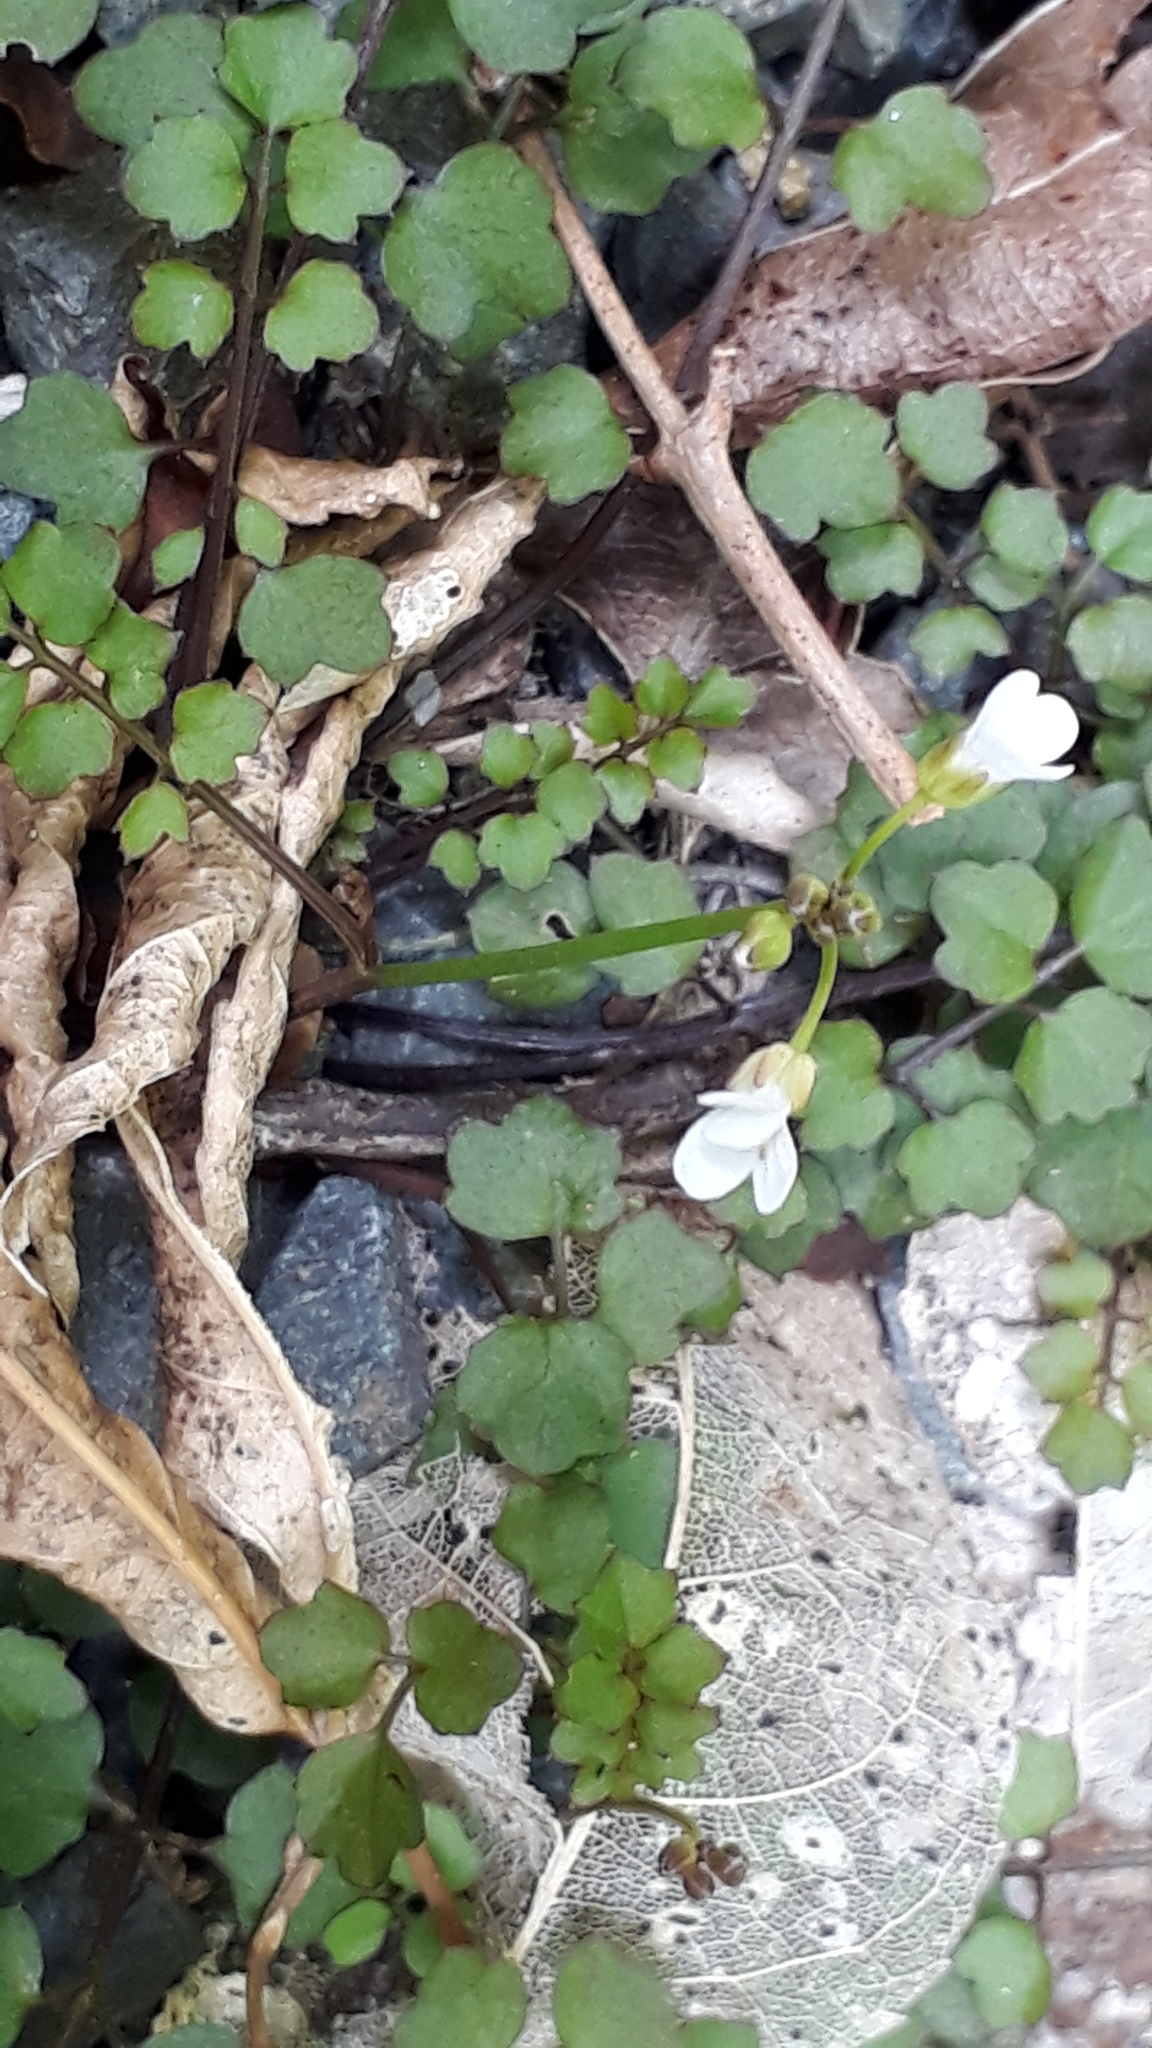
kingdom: Plantae
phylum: Tracheophyta
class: Magnoliopsida
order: Brassicales
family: Brassicaceae
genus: Cardamine
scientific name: Cardamine dolichostyla
